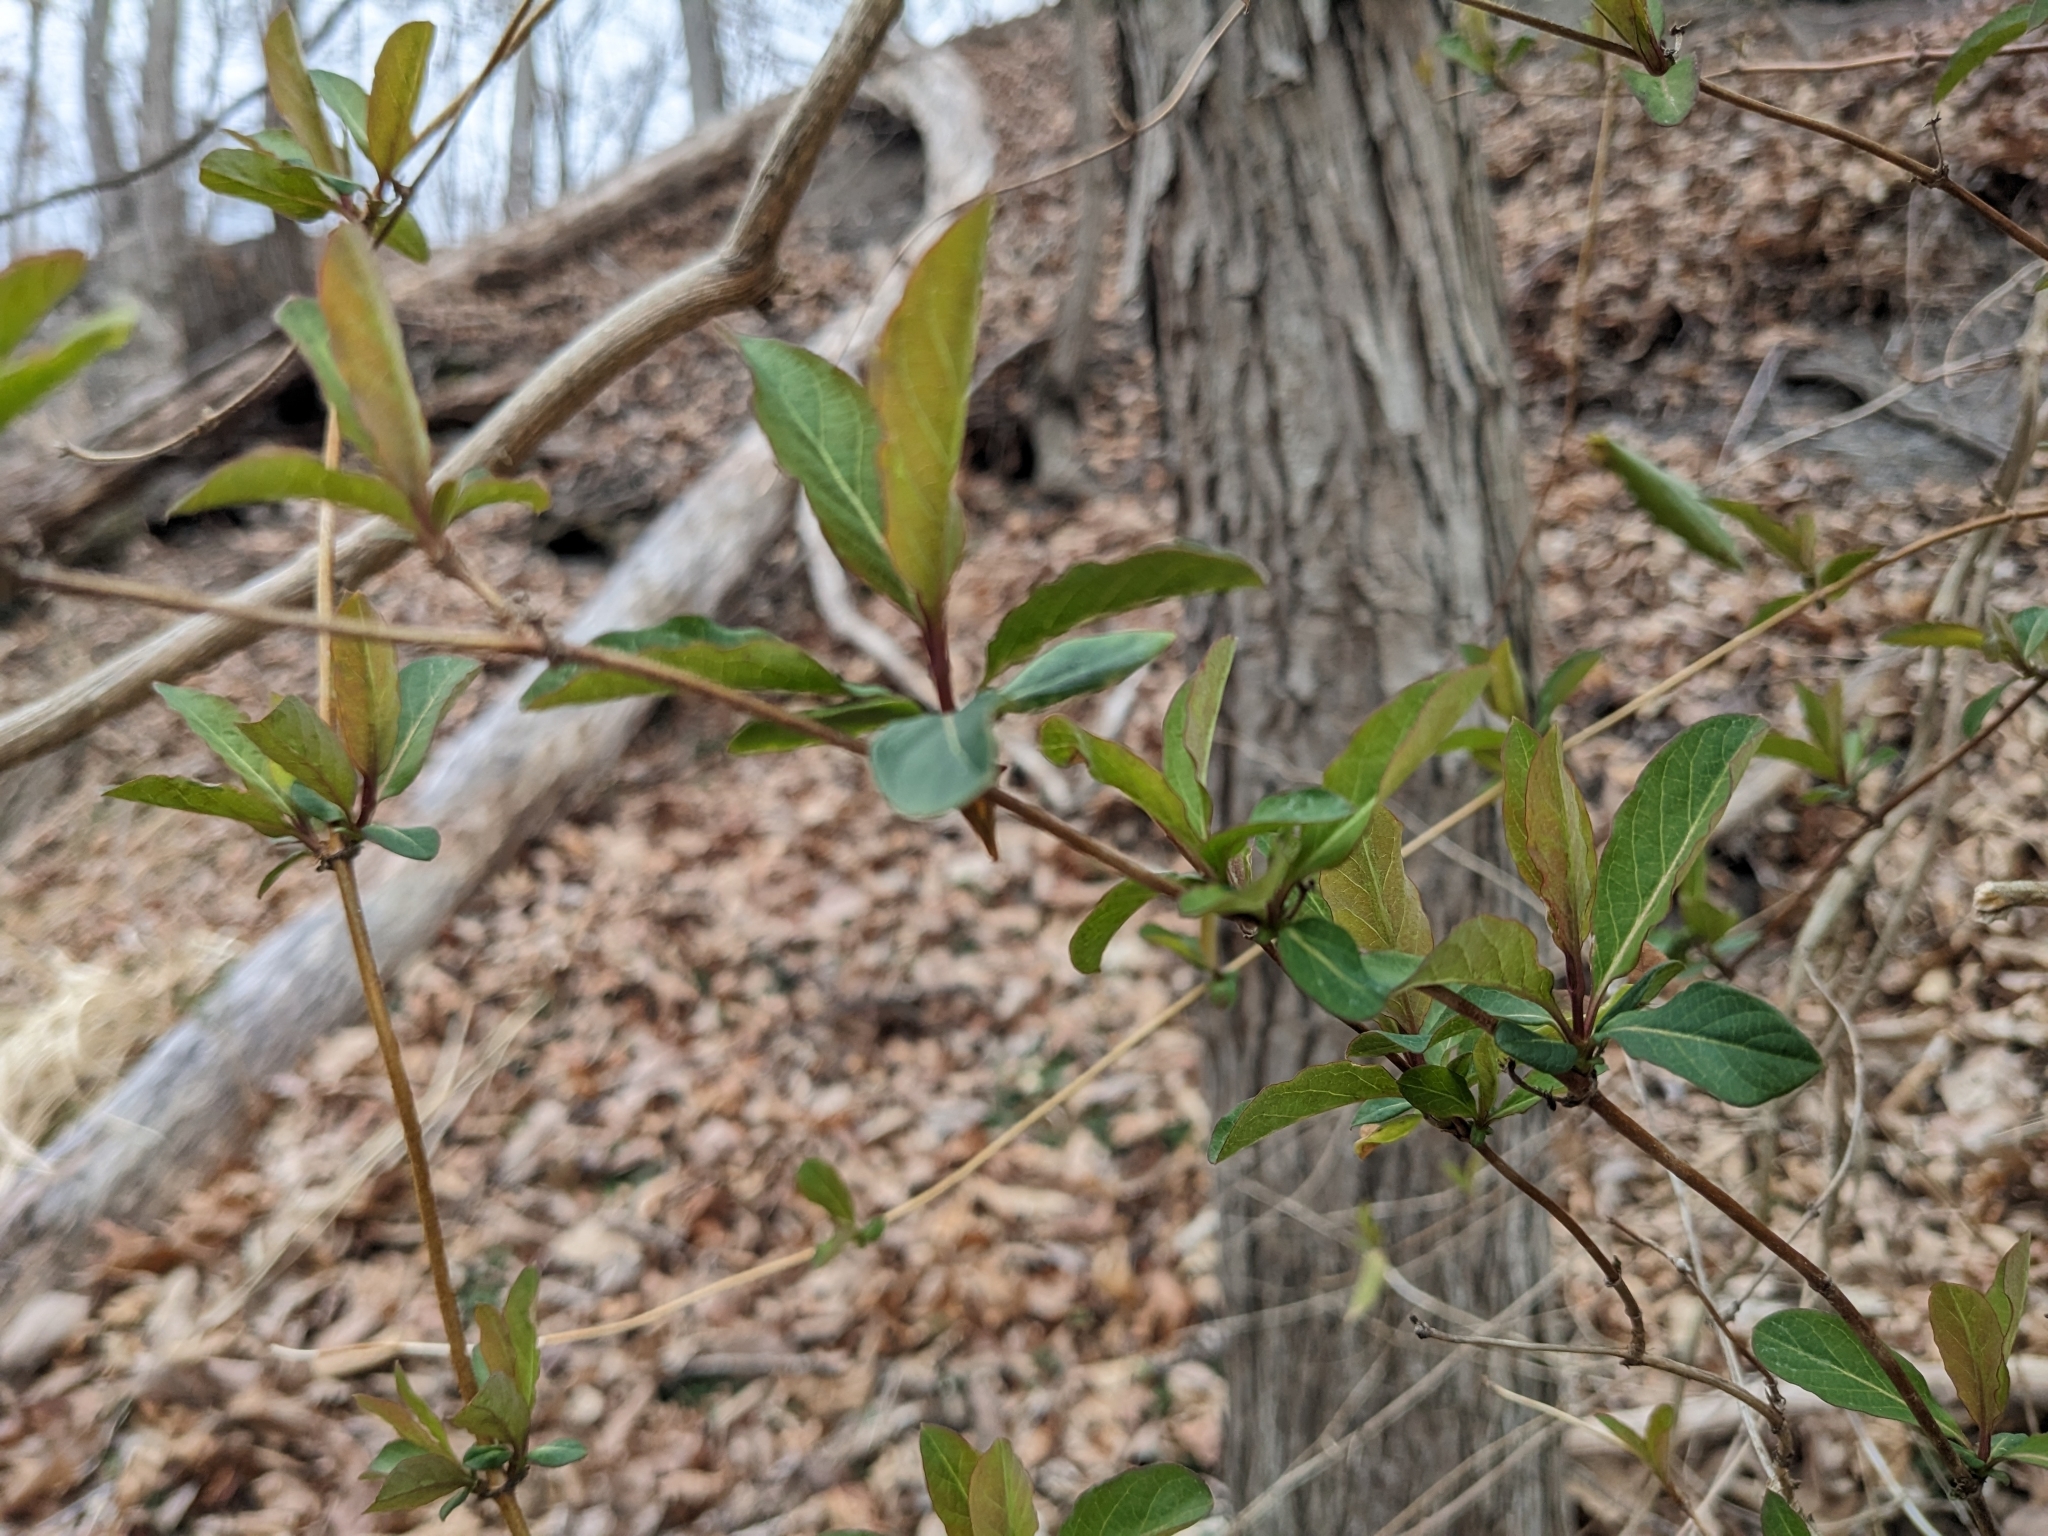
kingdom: Plantae
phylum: Tracheophyta
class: Magnoliopsida
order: Dipsacales
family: Caprifoliaceae
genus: Lonicera
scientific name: Lonicera japonica
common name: Japanese honeysuckle
